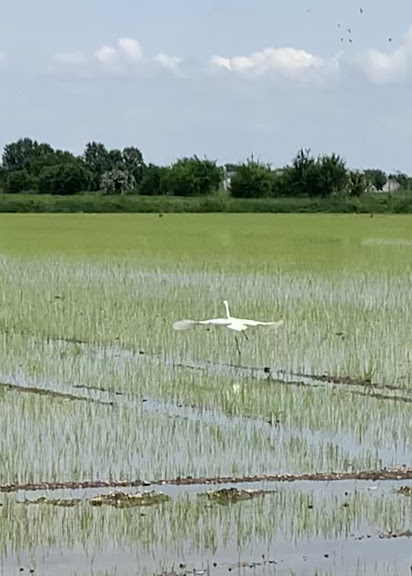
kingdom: Animalia
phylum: Chordata
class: Aves
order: Pelecaniformes
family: Ardeidae
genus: Ardea
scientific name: Ardea alba
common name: Great egret
